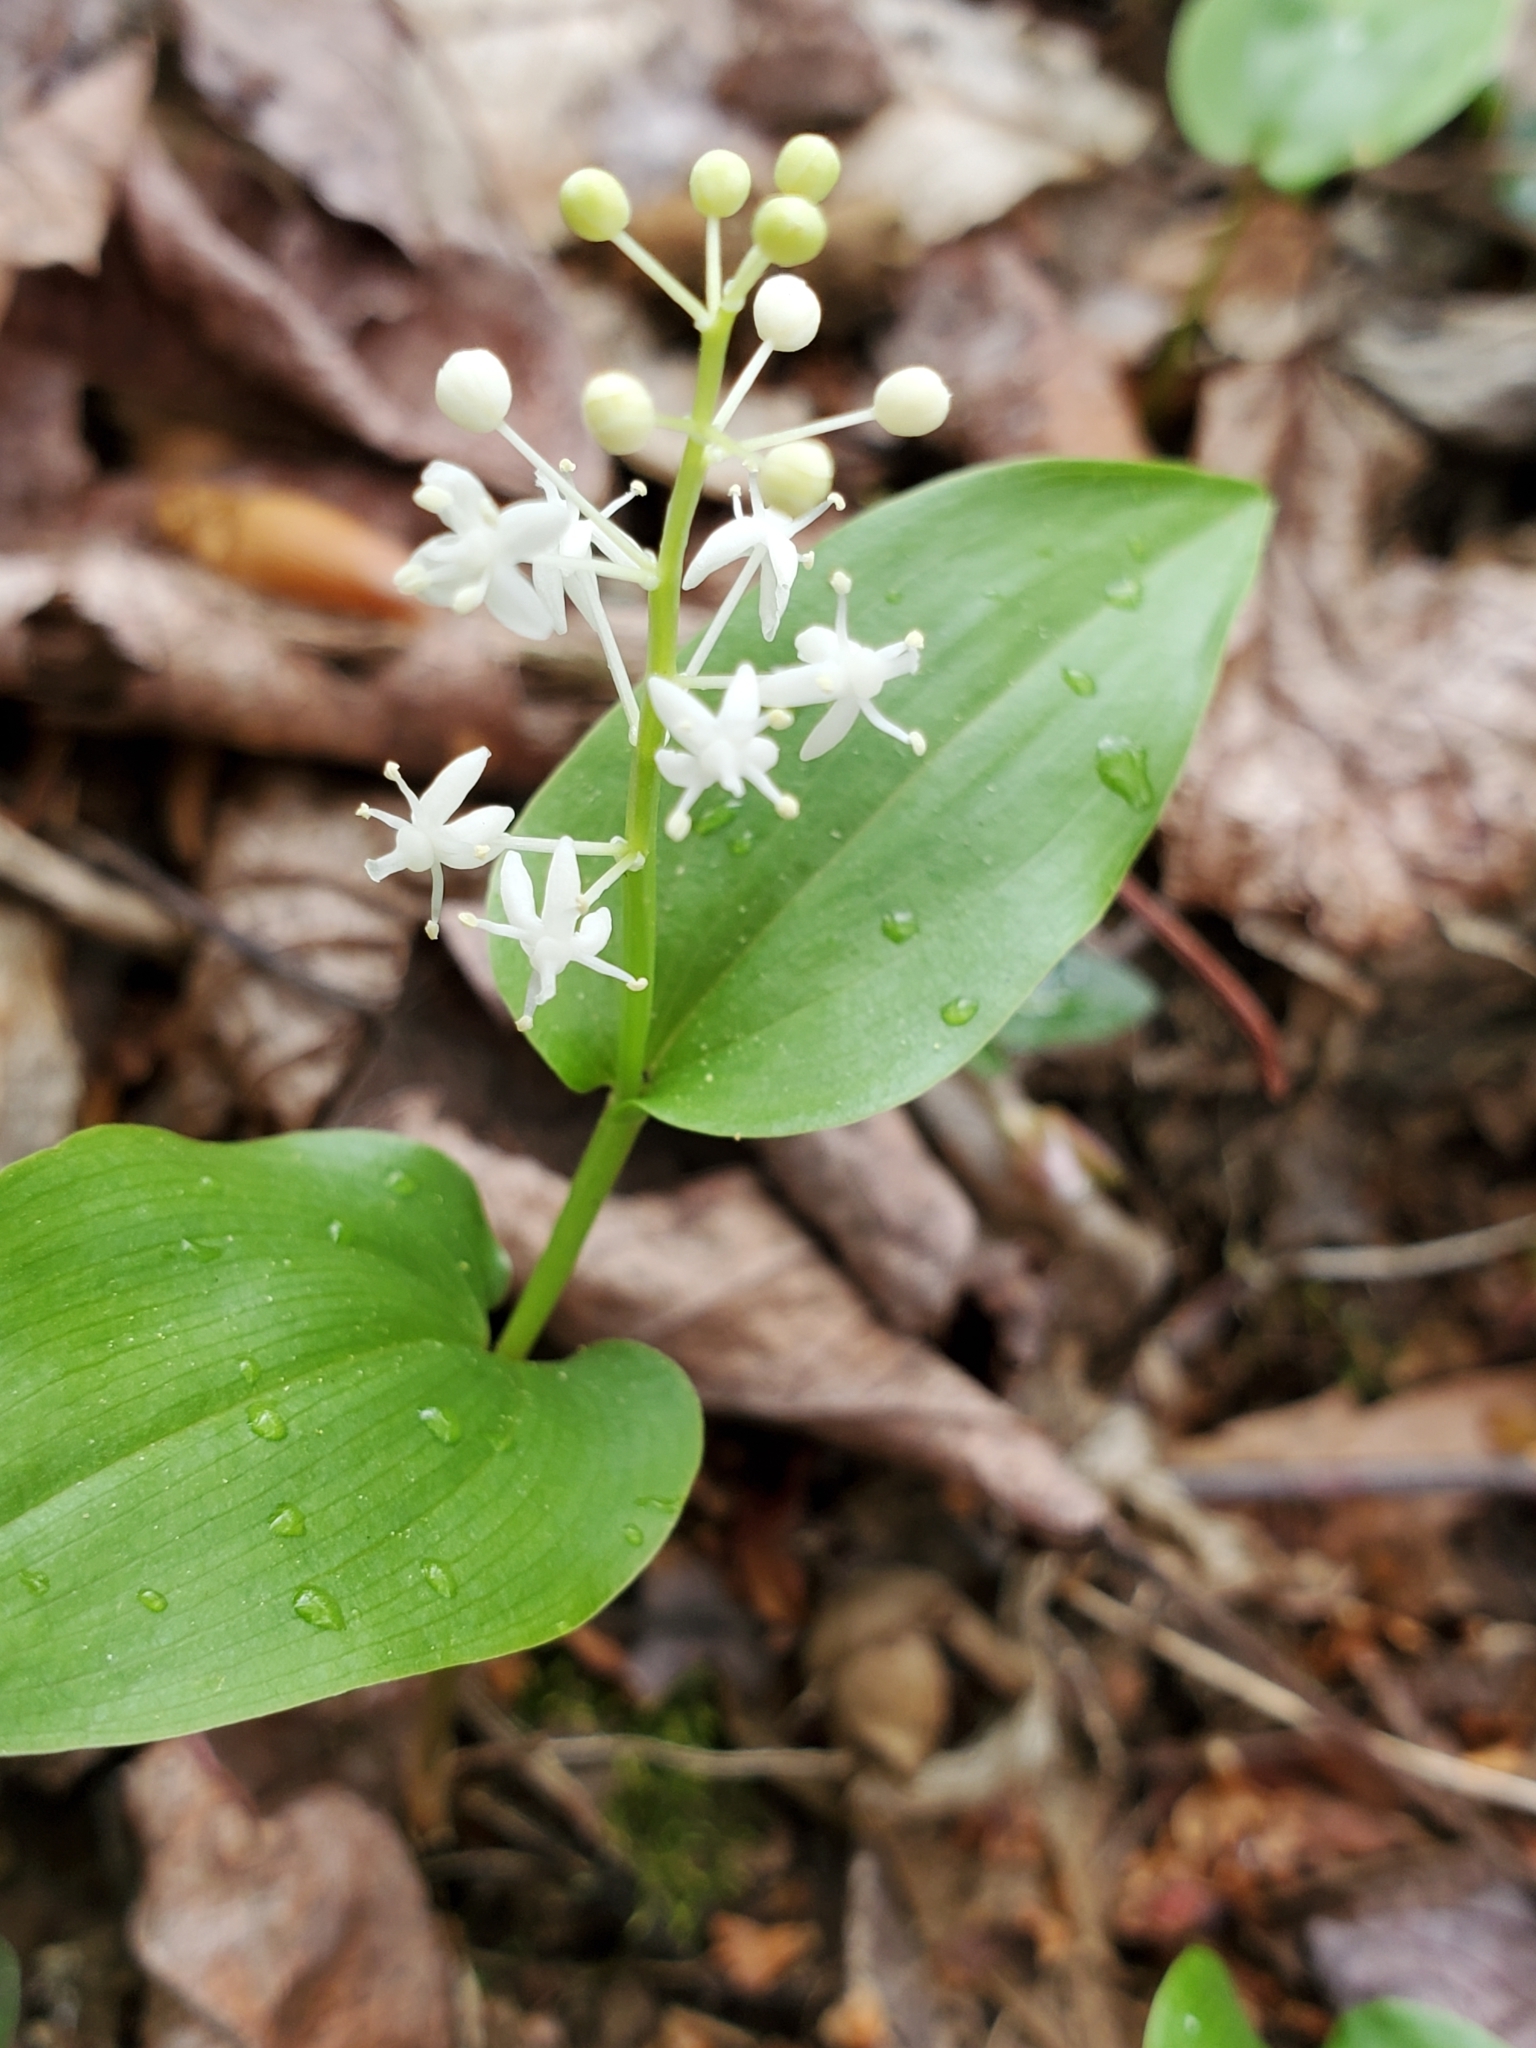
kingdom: Plantae
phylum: Tracheophyta
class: Liliopsida
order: Asparagales
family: Asparagaceae
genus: Maianthemum
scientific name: Maianthemum canadense
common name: False lily-of-the-valley
